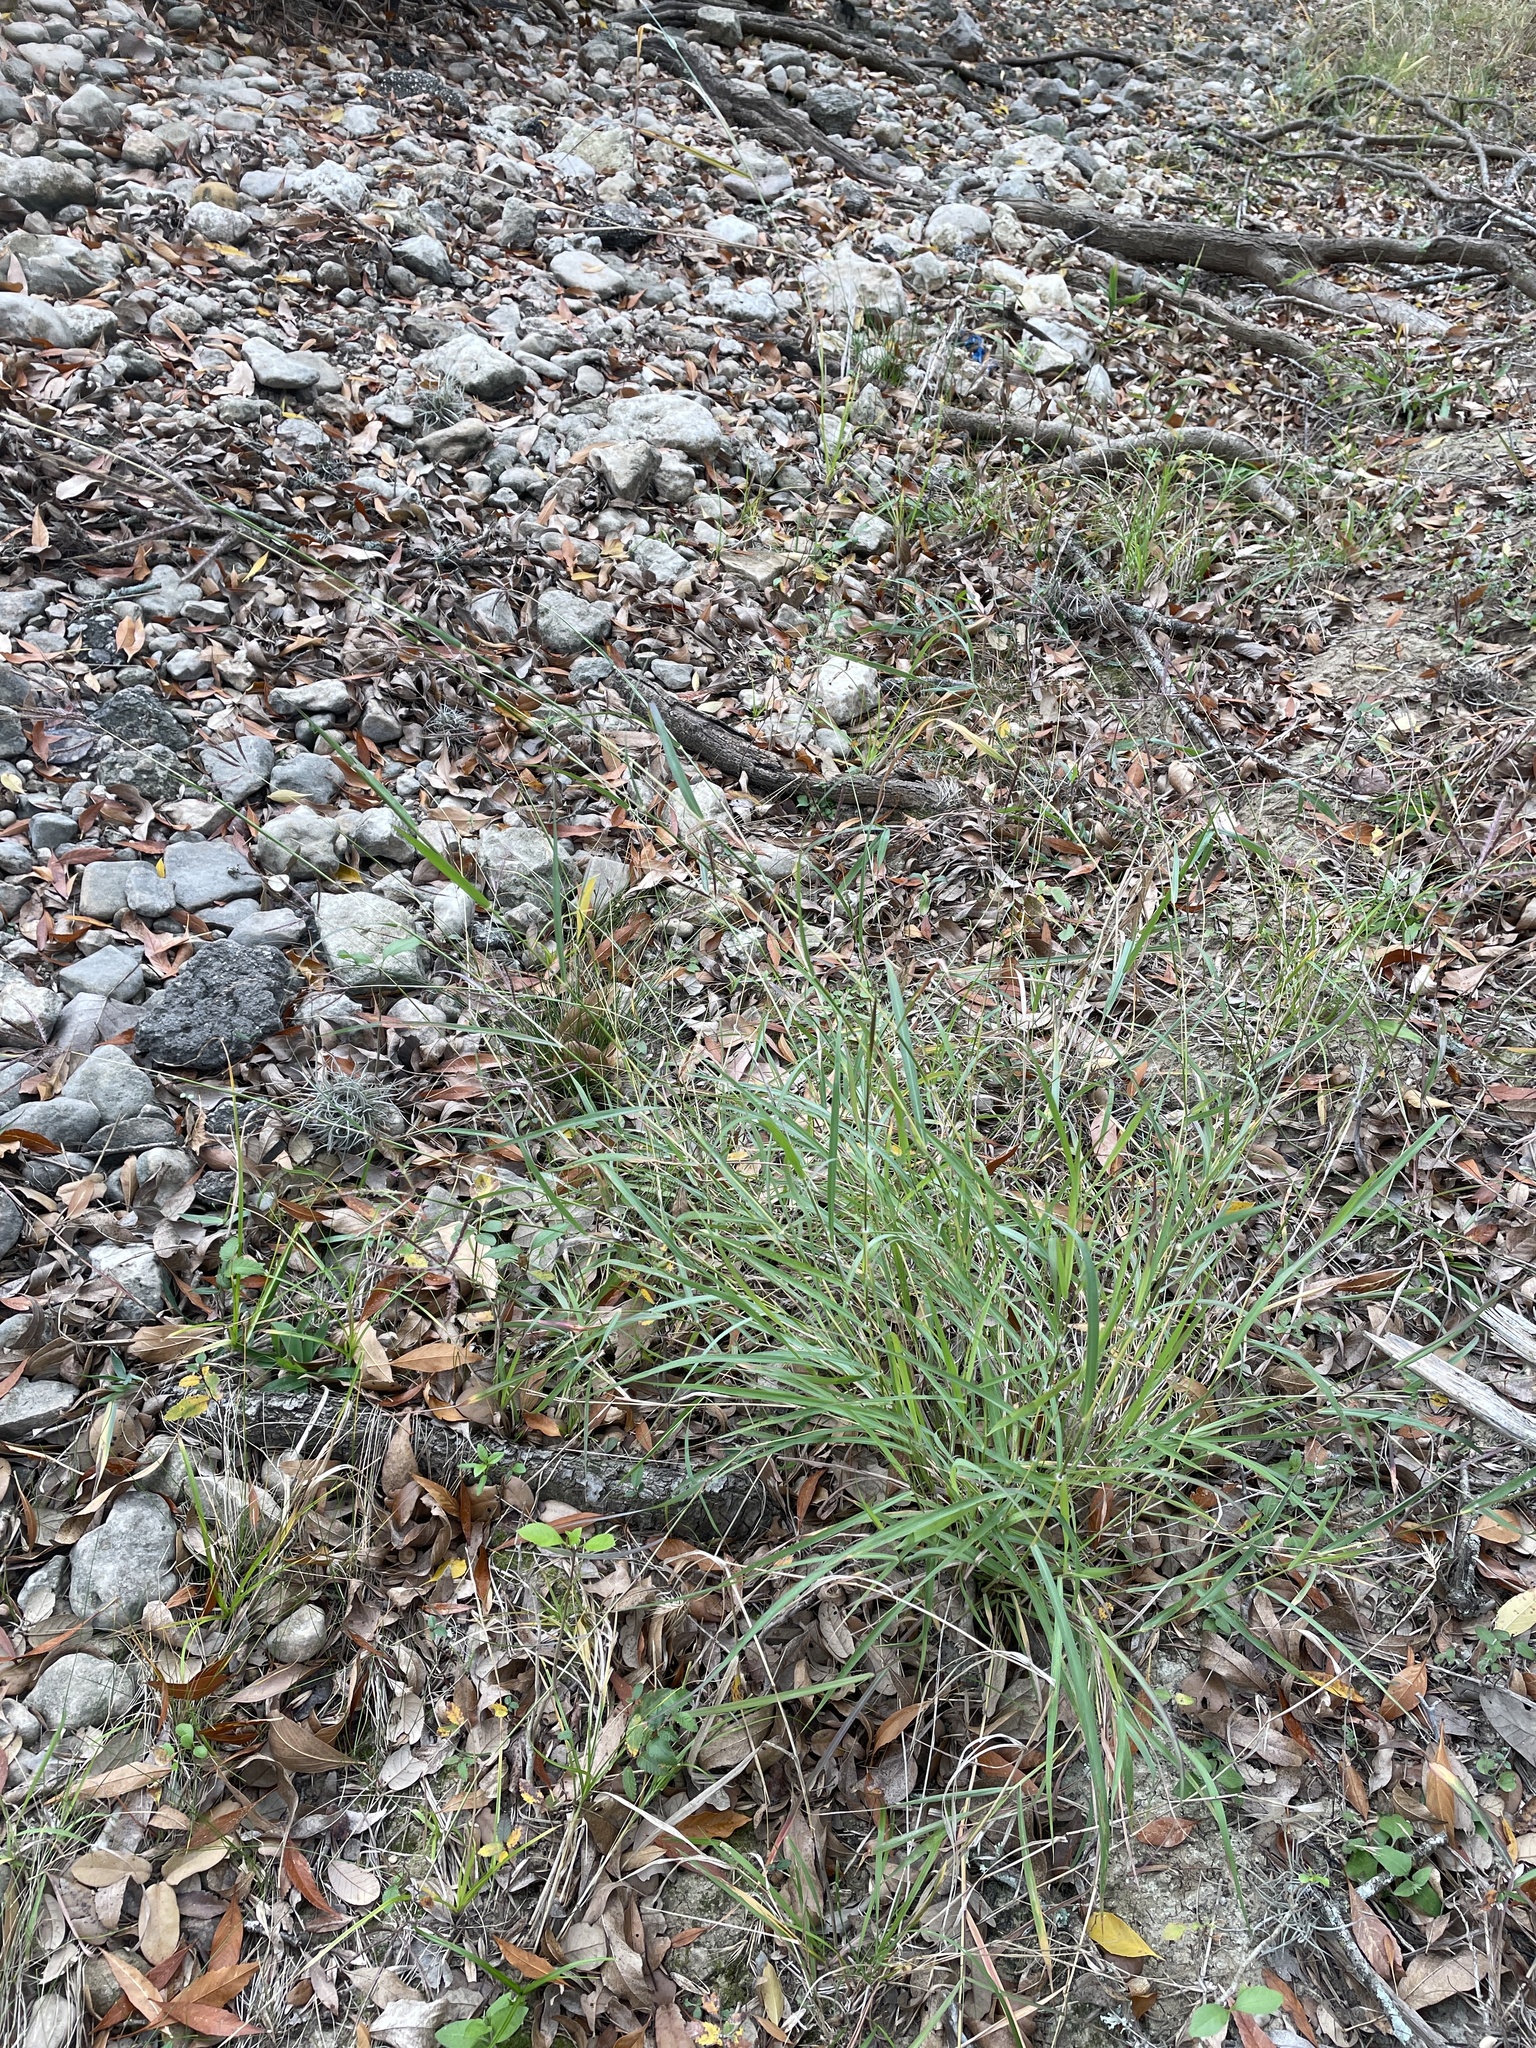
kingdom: Plantae
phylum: Tracheophyta
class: Liliopsida
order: Poales
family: Poaceae
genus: Dichanthium
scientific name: Dichanthium annulatum
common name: Kleberg's bluestem
